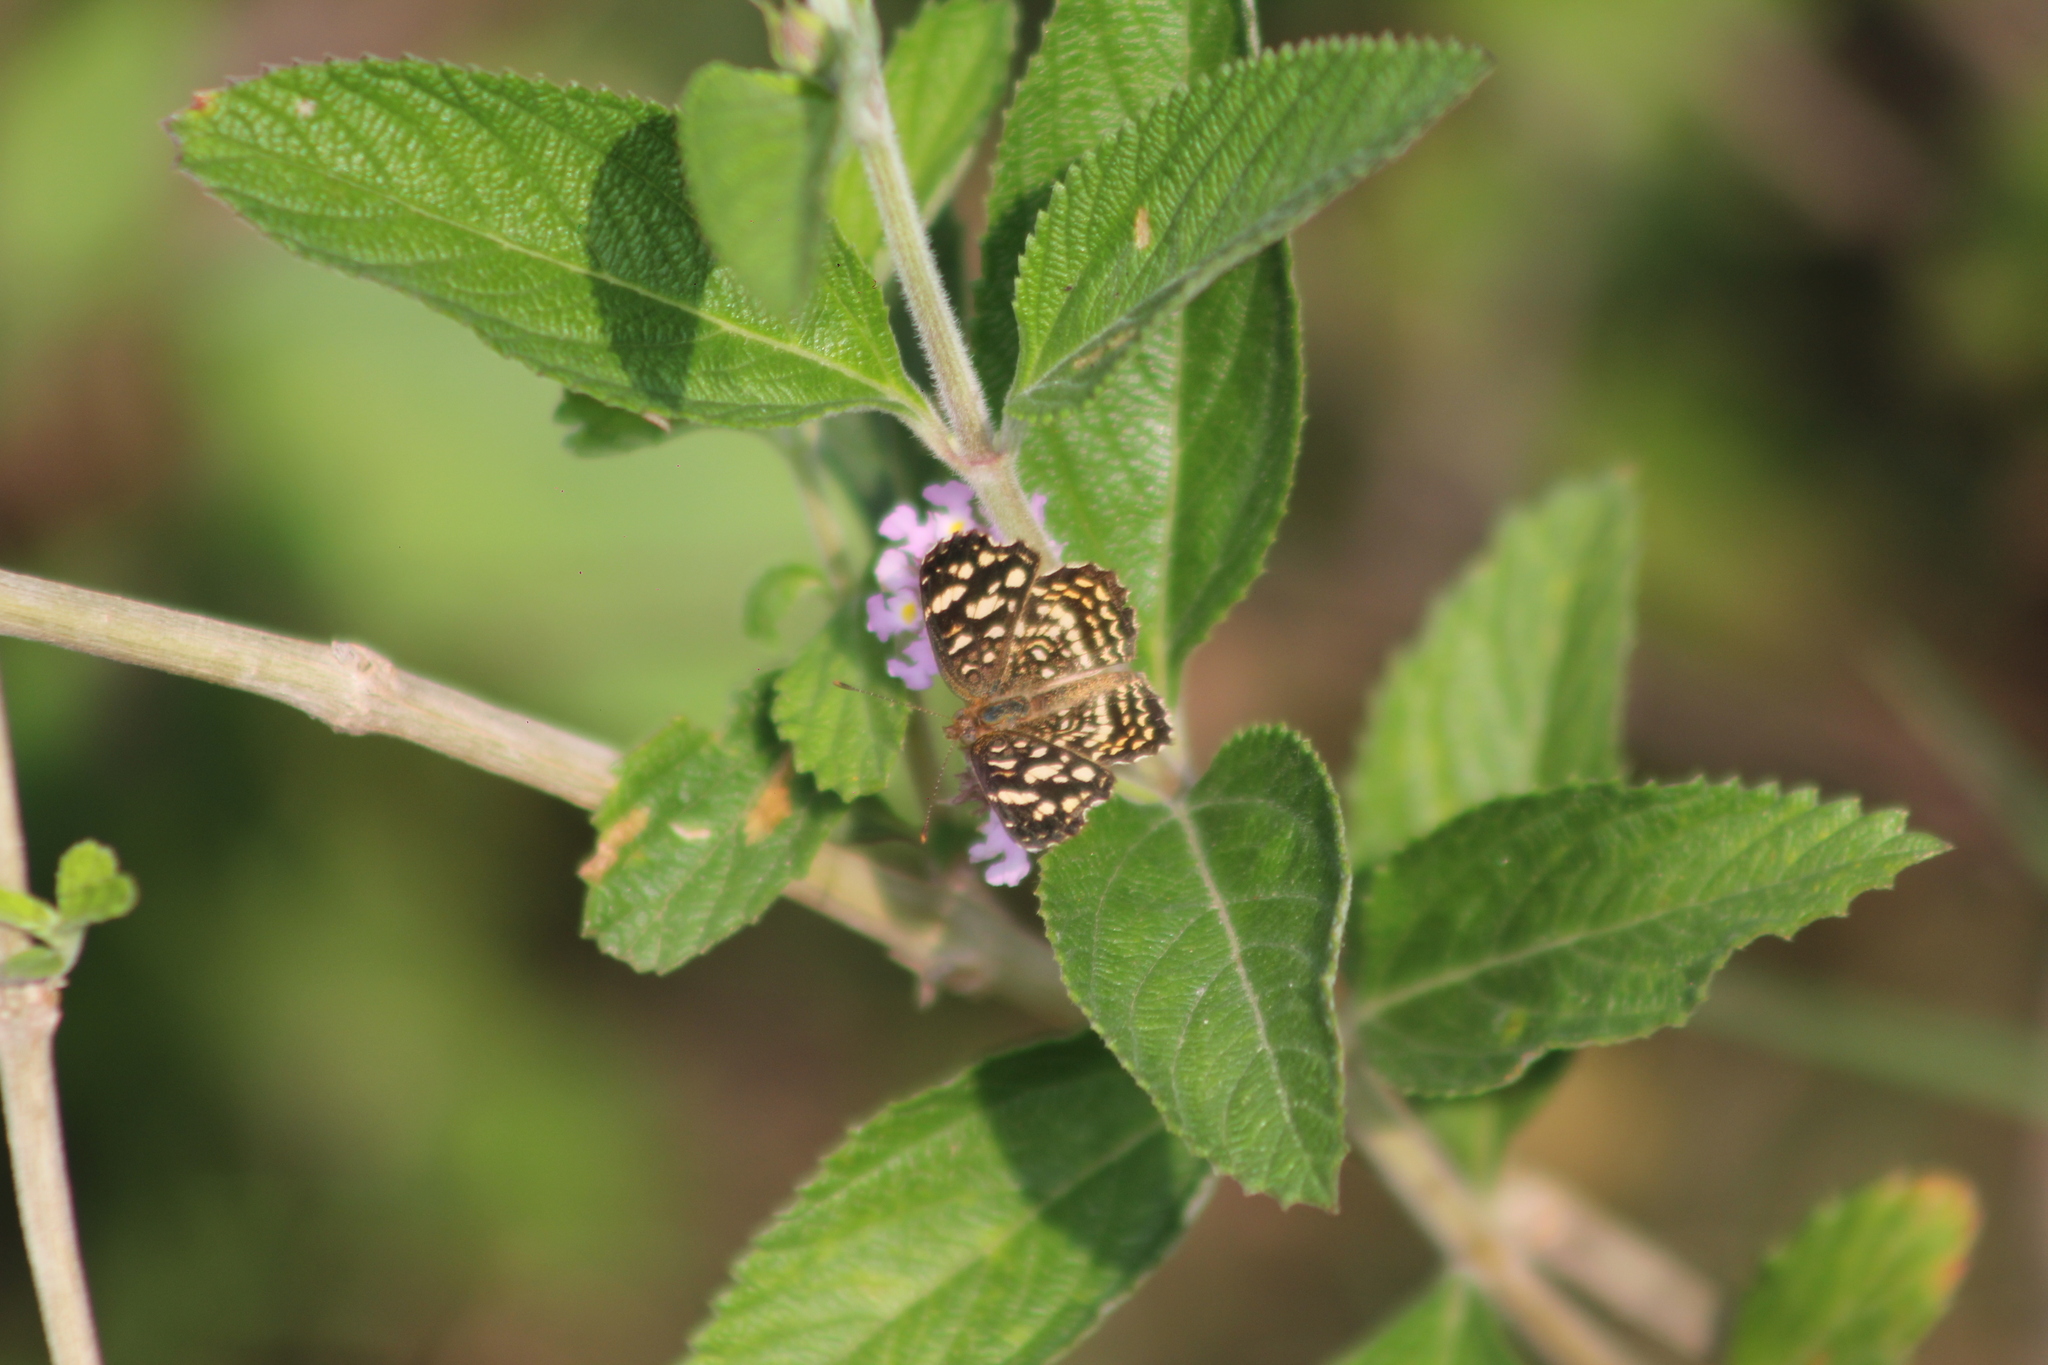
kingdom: Animalia
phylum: Arthropoda
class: Insecta
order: Lepidoptera
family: Nymphalidae
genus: Anthanassa
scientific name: Anthanassa hermas
